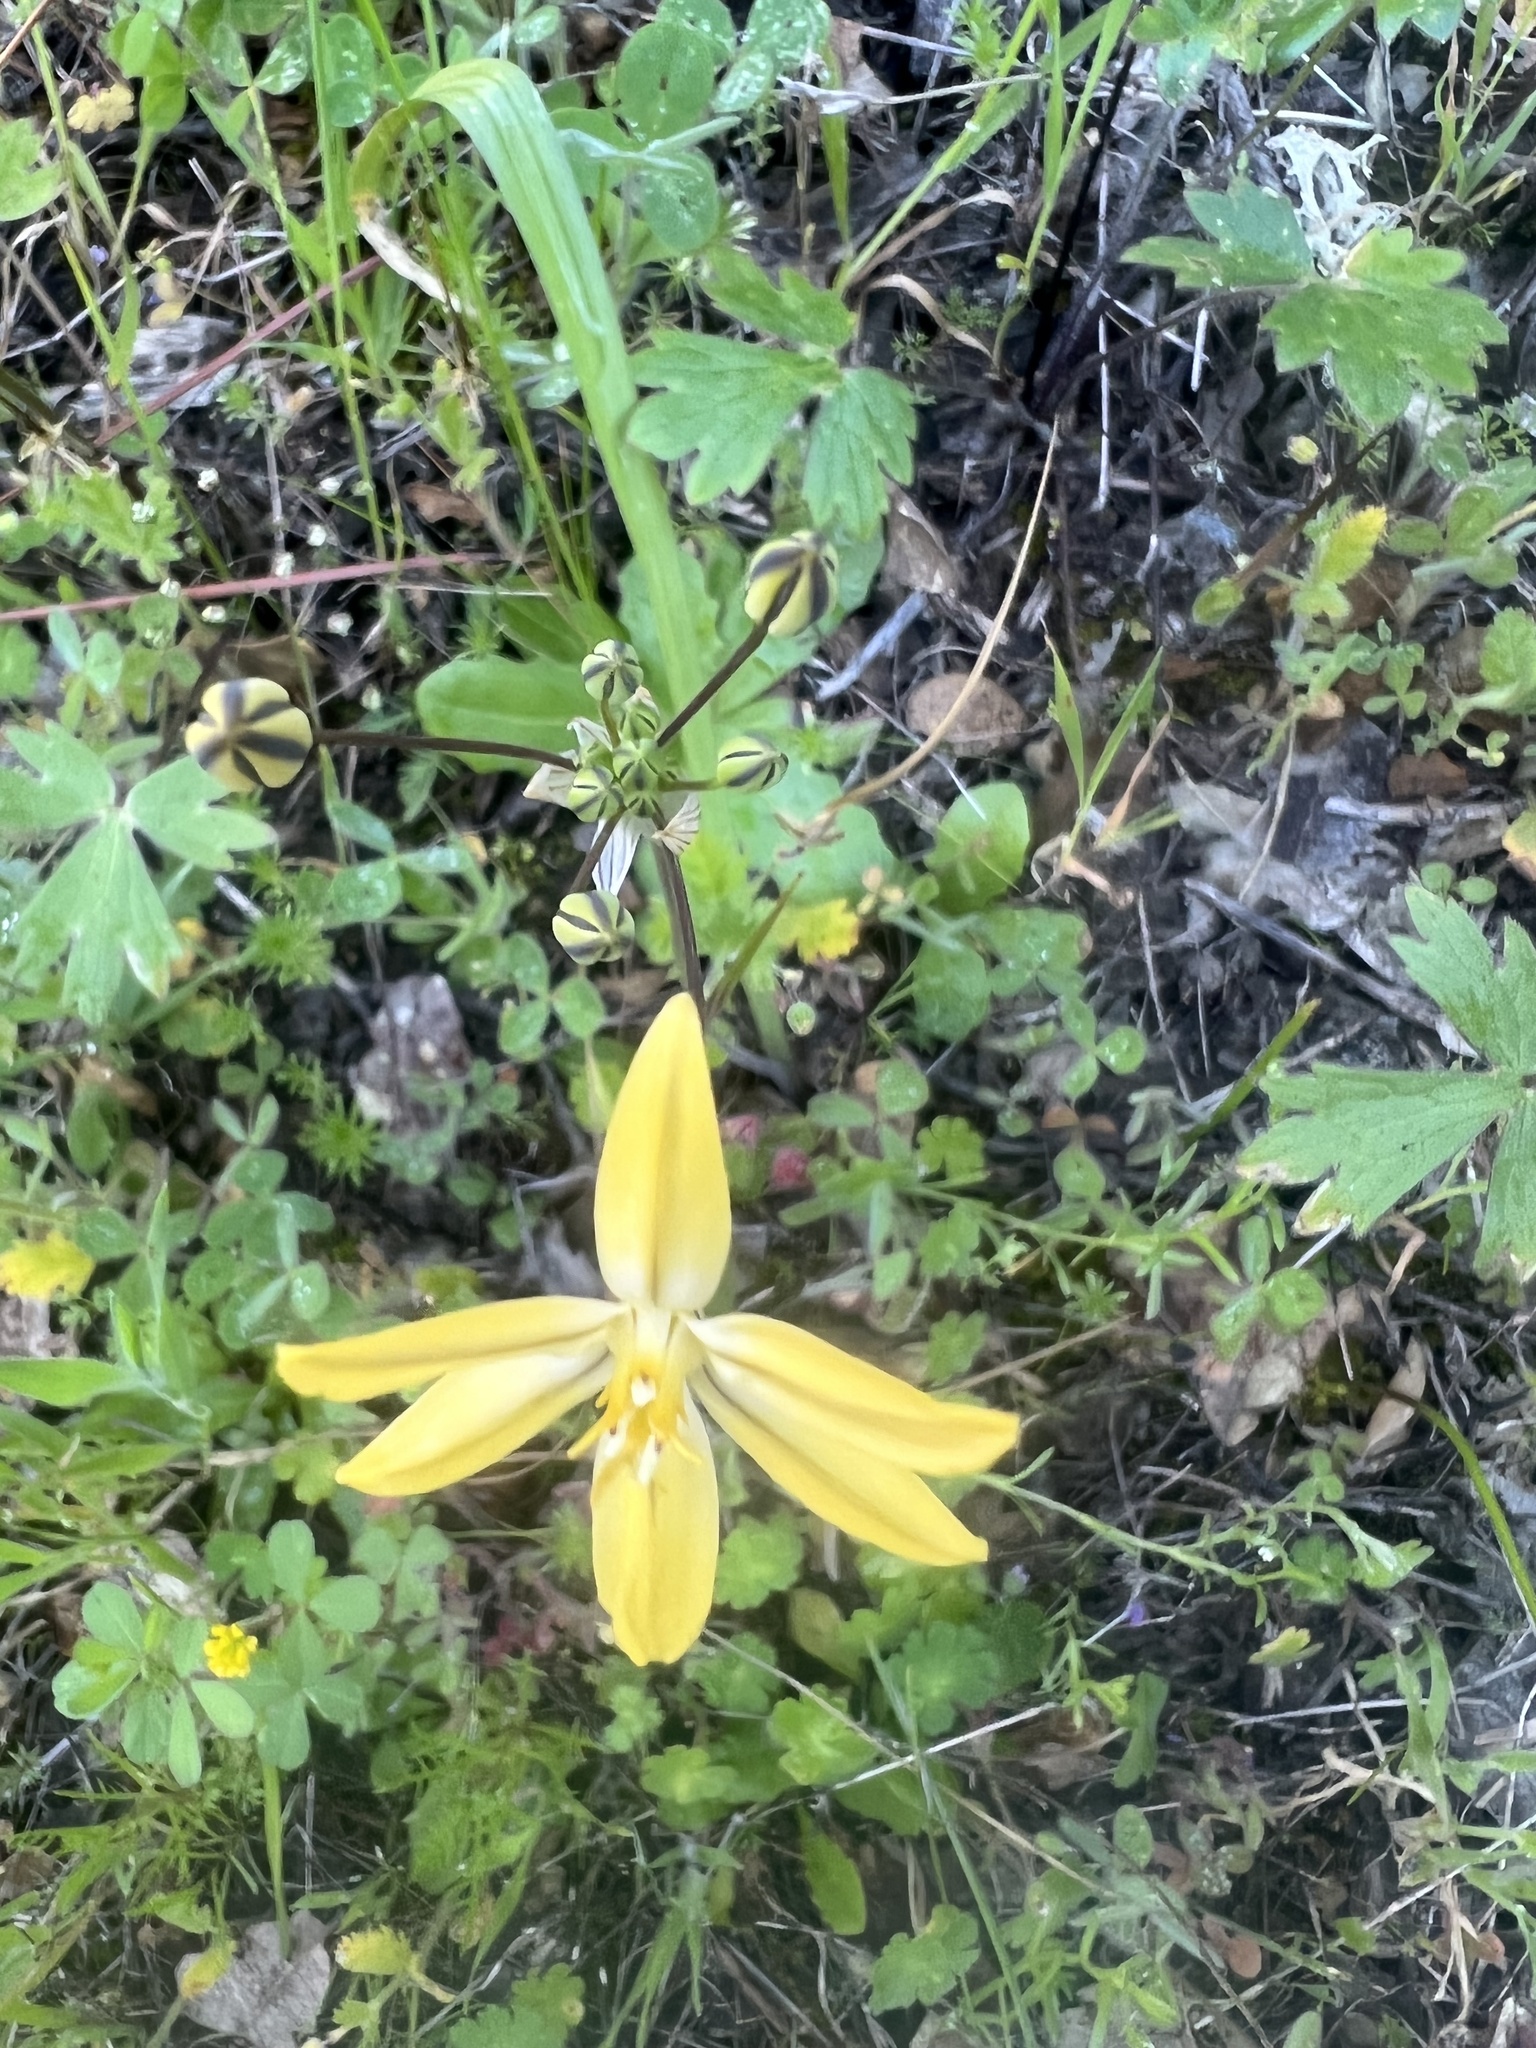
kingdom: Plantae
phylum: Tracheophyta
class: Liliopsida
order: Asparagales
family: Asparagaceae
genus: Triteleia
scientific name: Triteleia ixioides
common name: Yellow-brodiaea
